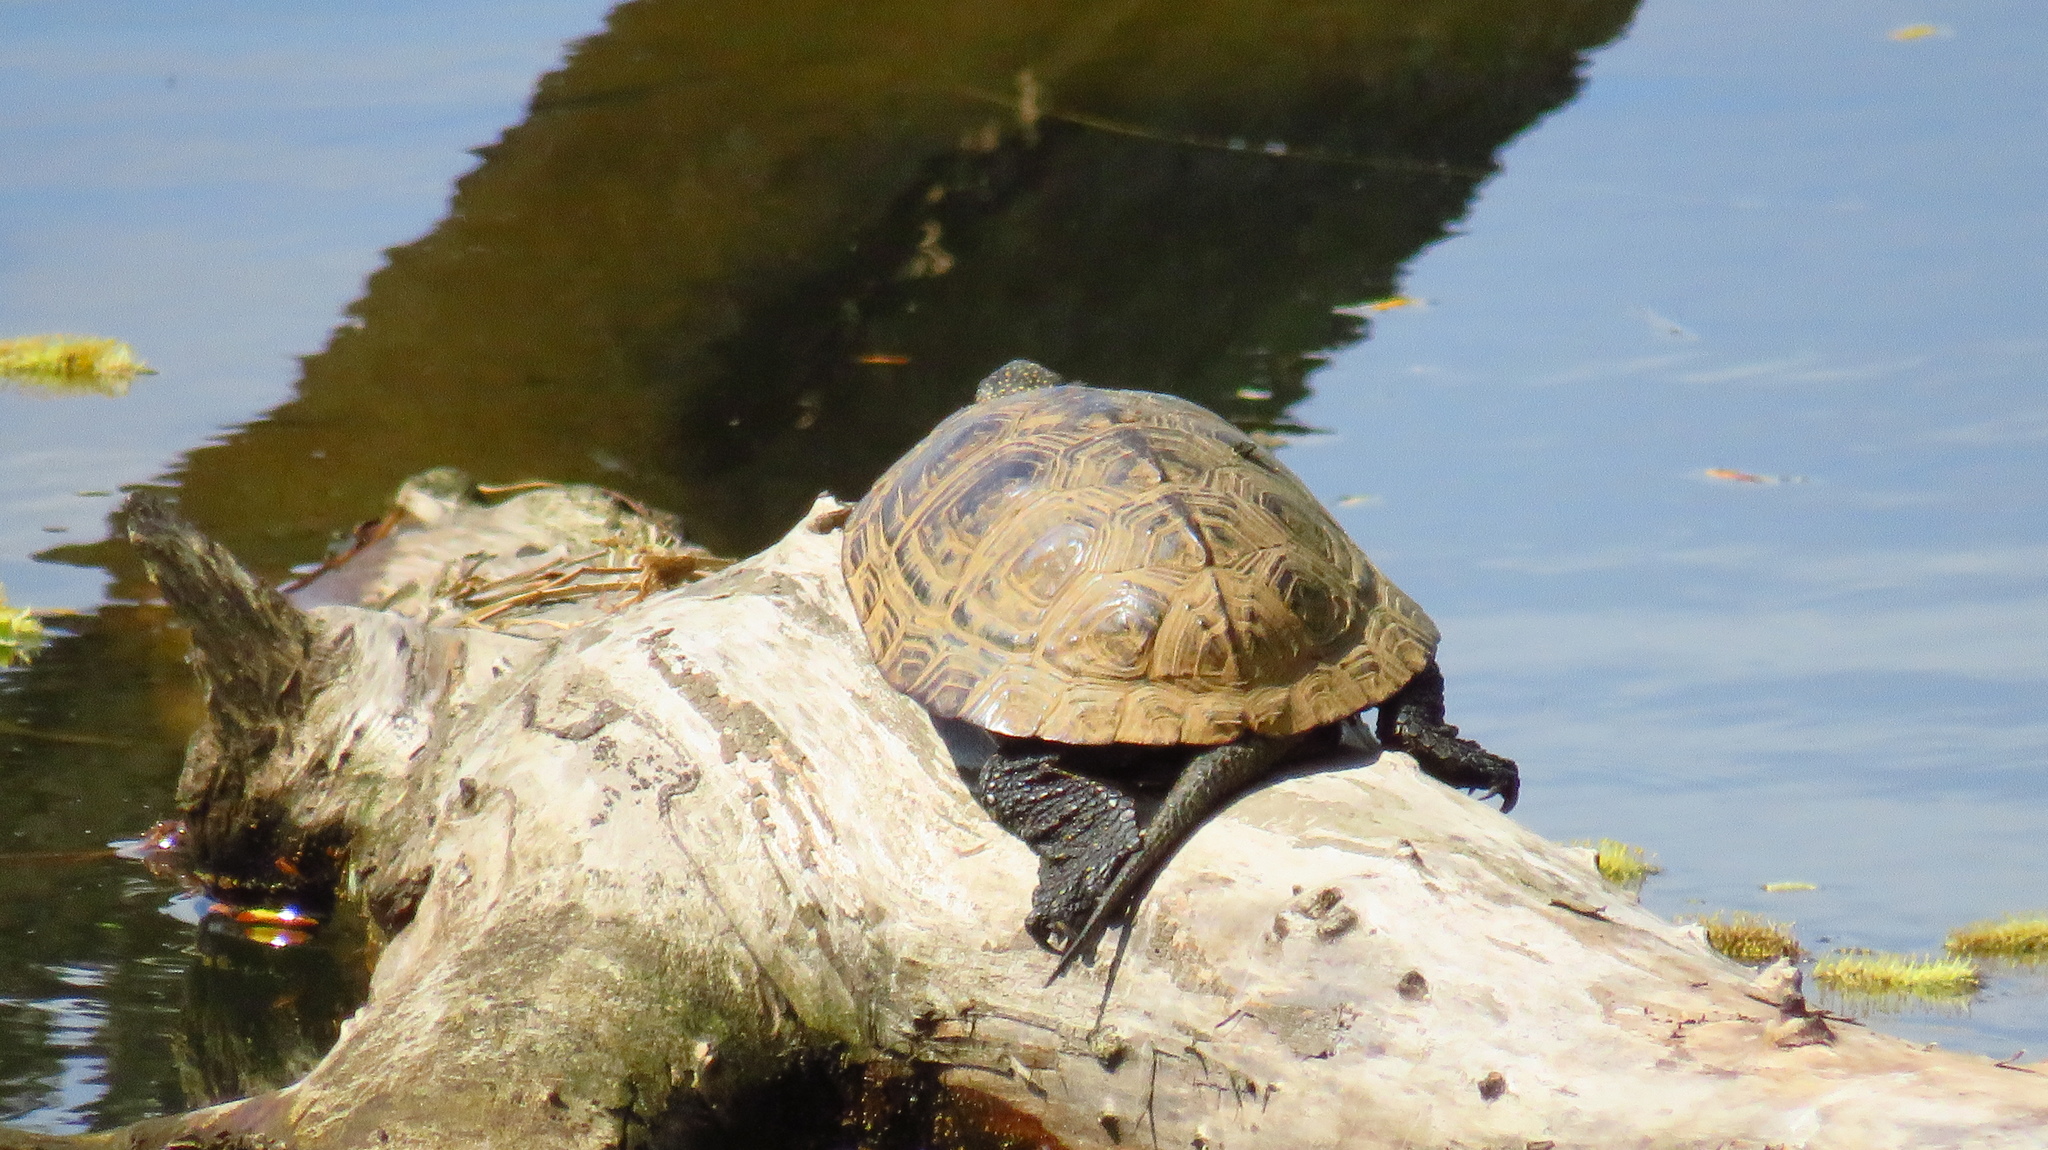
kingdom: Animalia
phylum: Chordata
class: Testudines
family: Emydidae
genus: Emys
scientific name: Emys orbicularis
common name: European pond turtle
